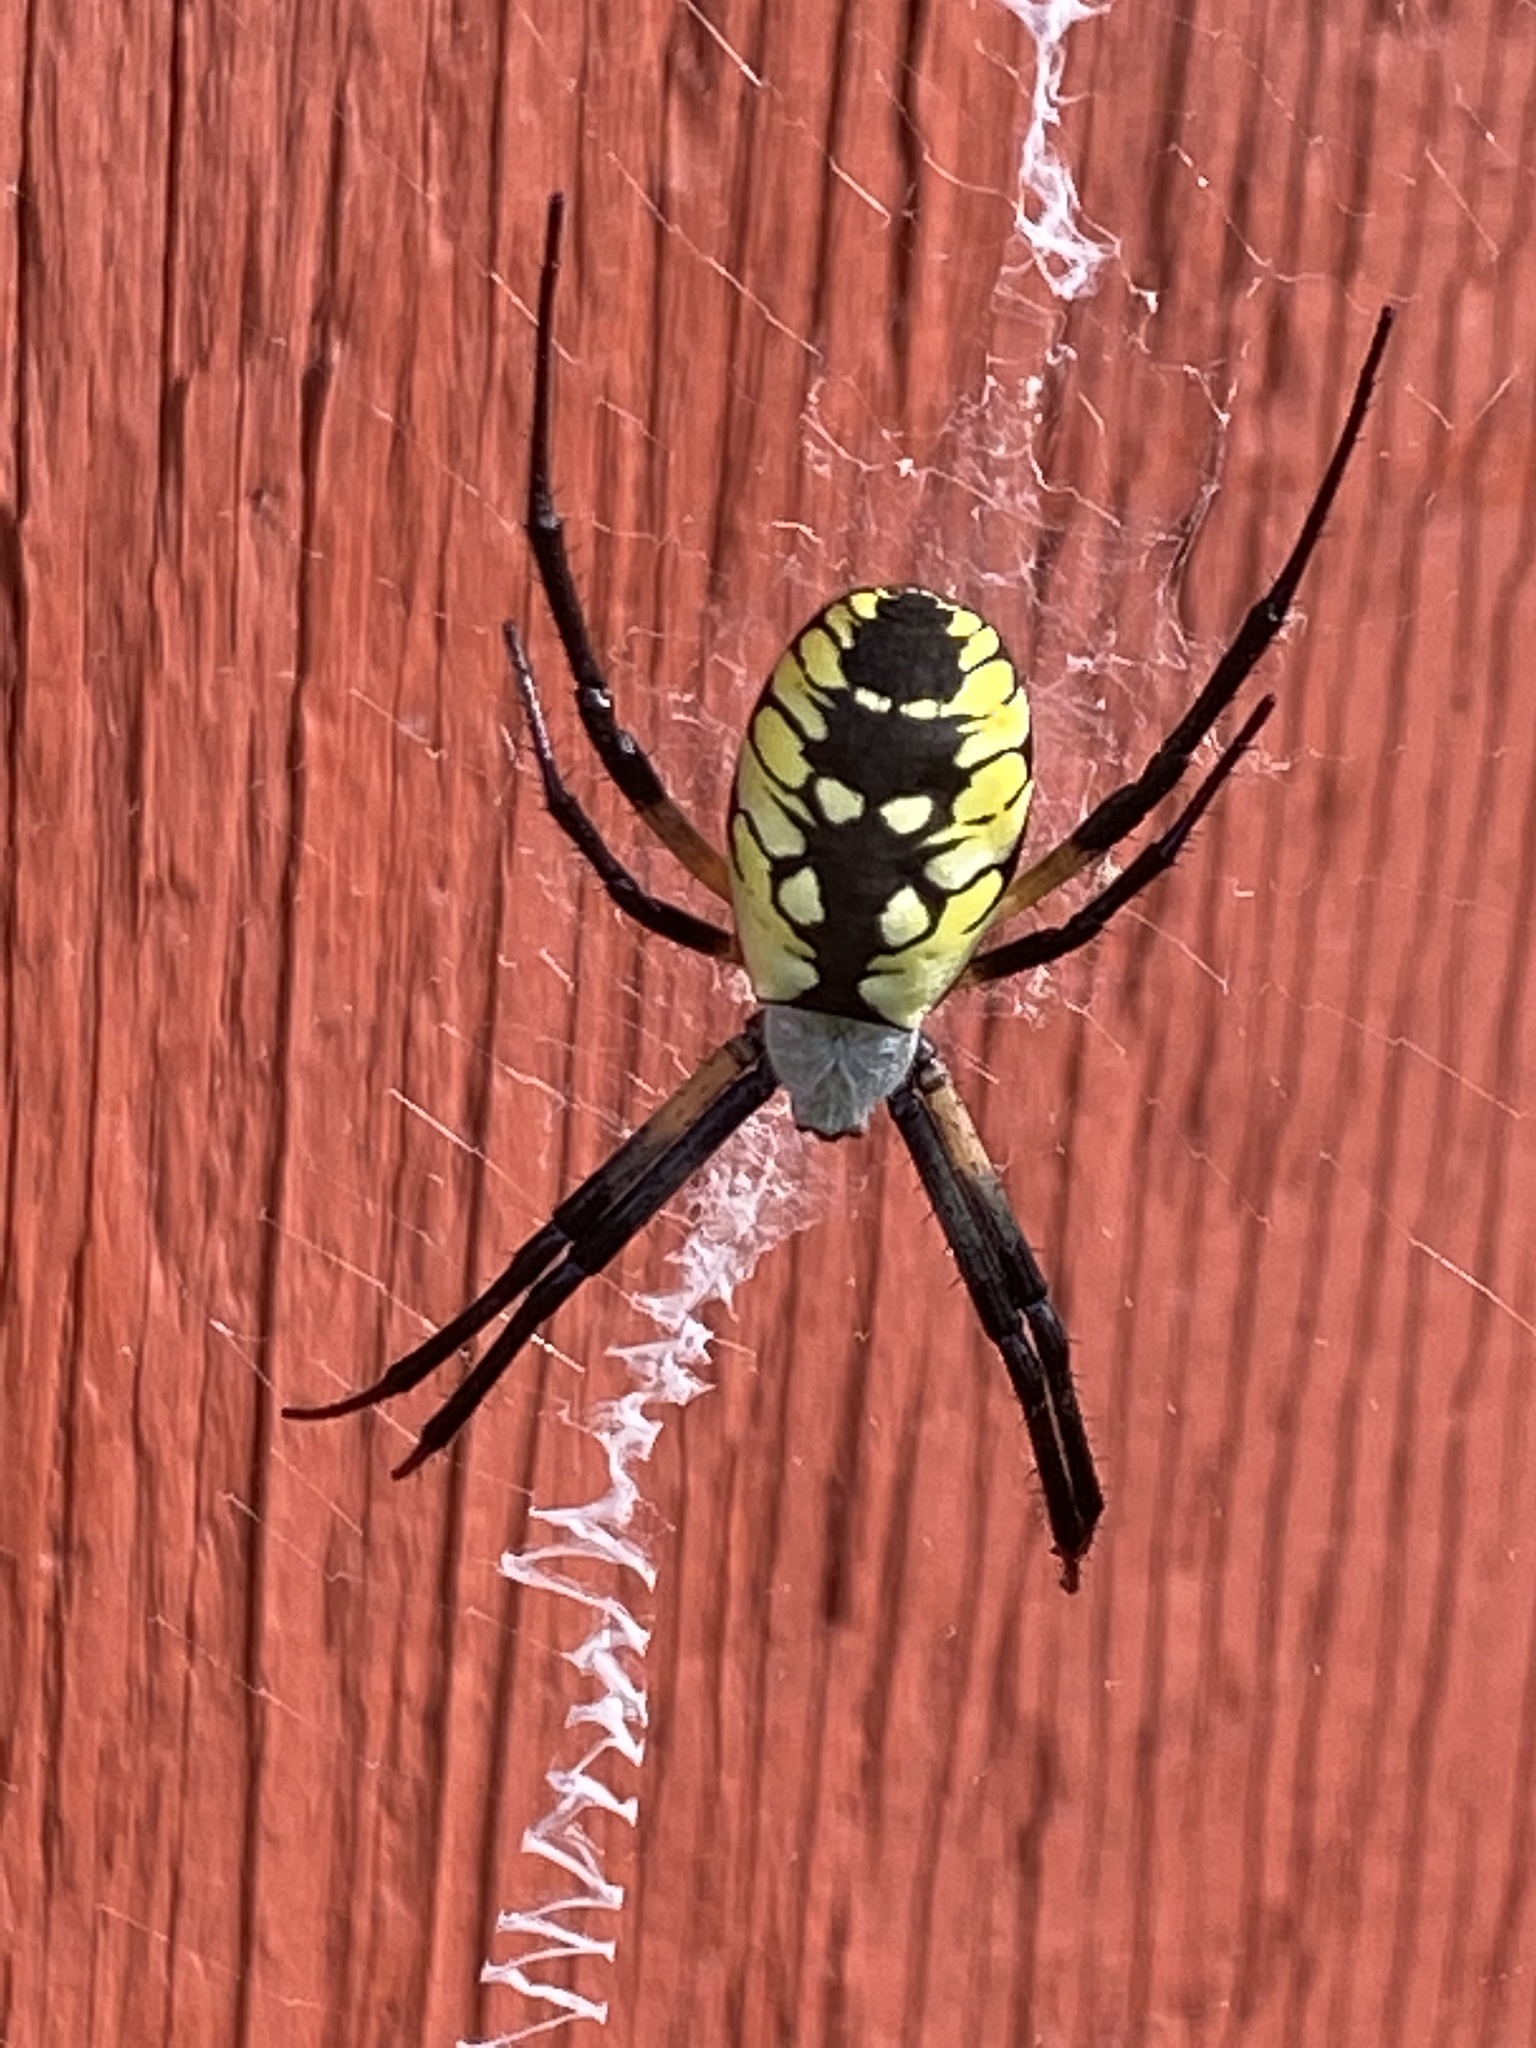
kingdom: Animalia
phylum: Arthropoda
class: Arachnida
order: Araneae
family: Araneidae
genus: Argiope
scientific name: Argiope aurantia
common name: Orb weavers
